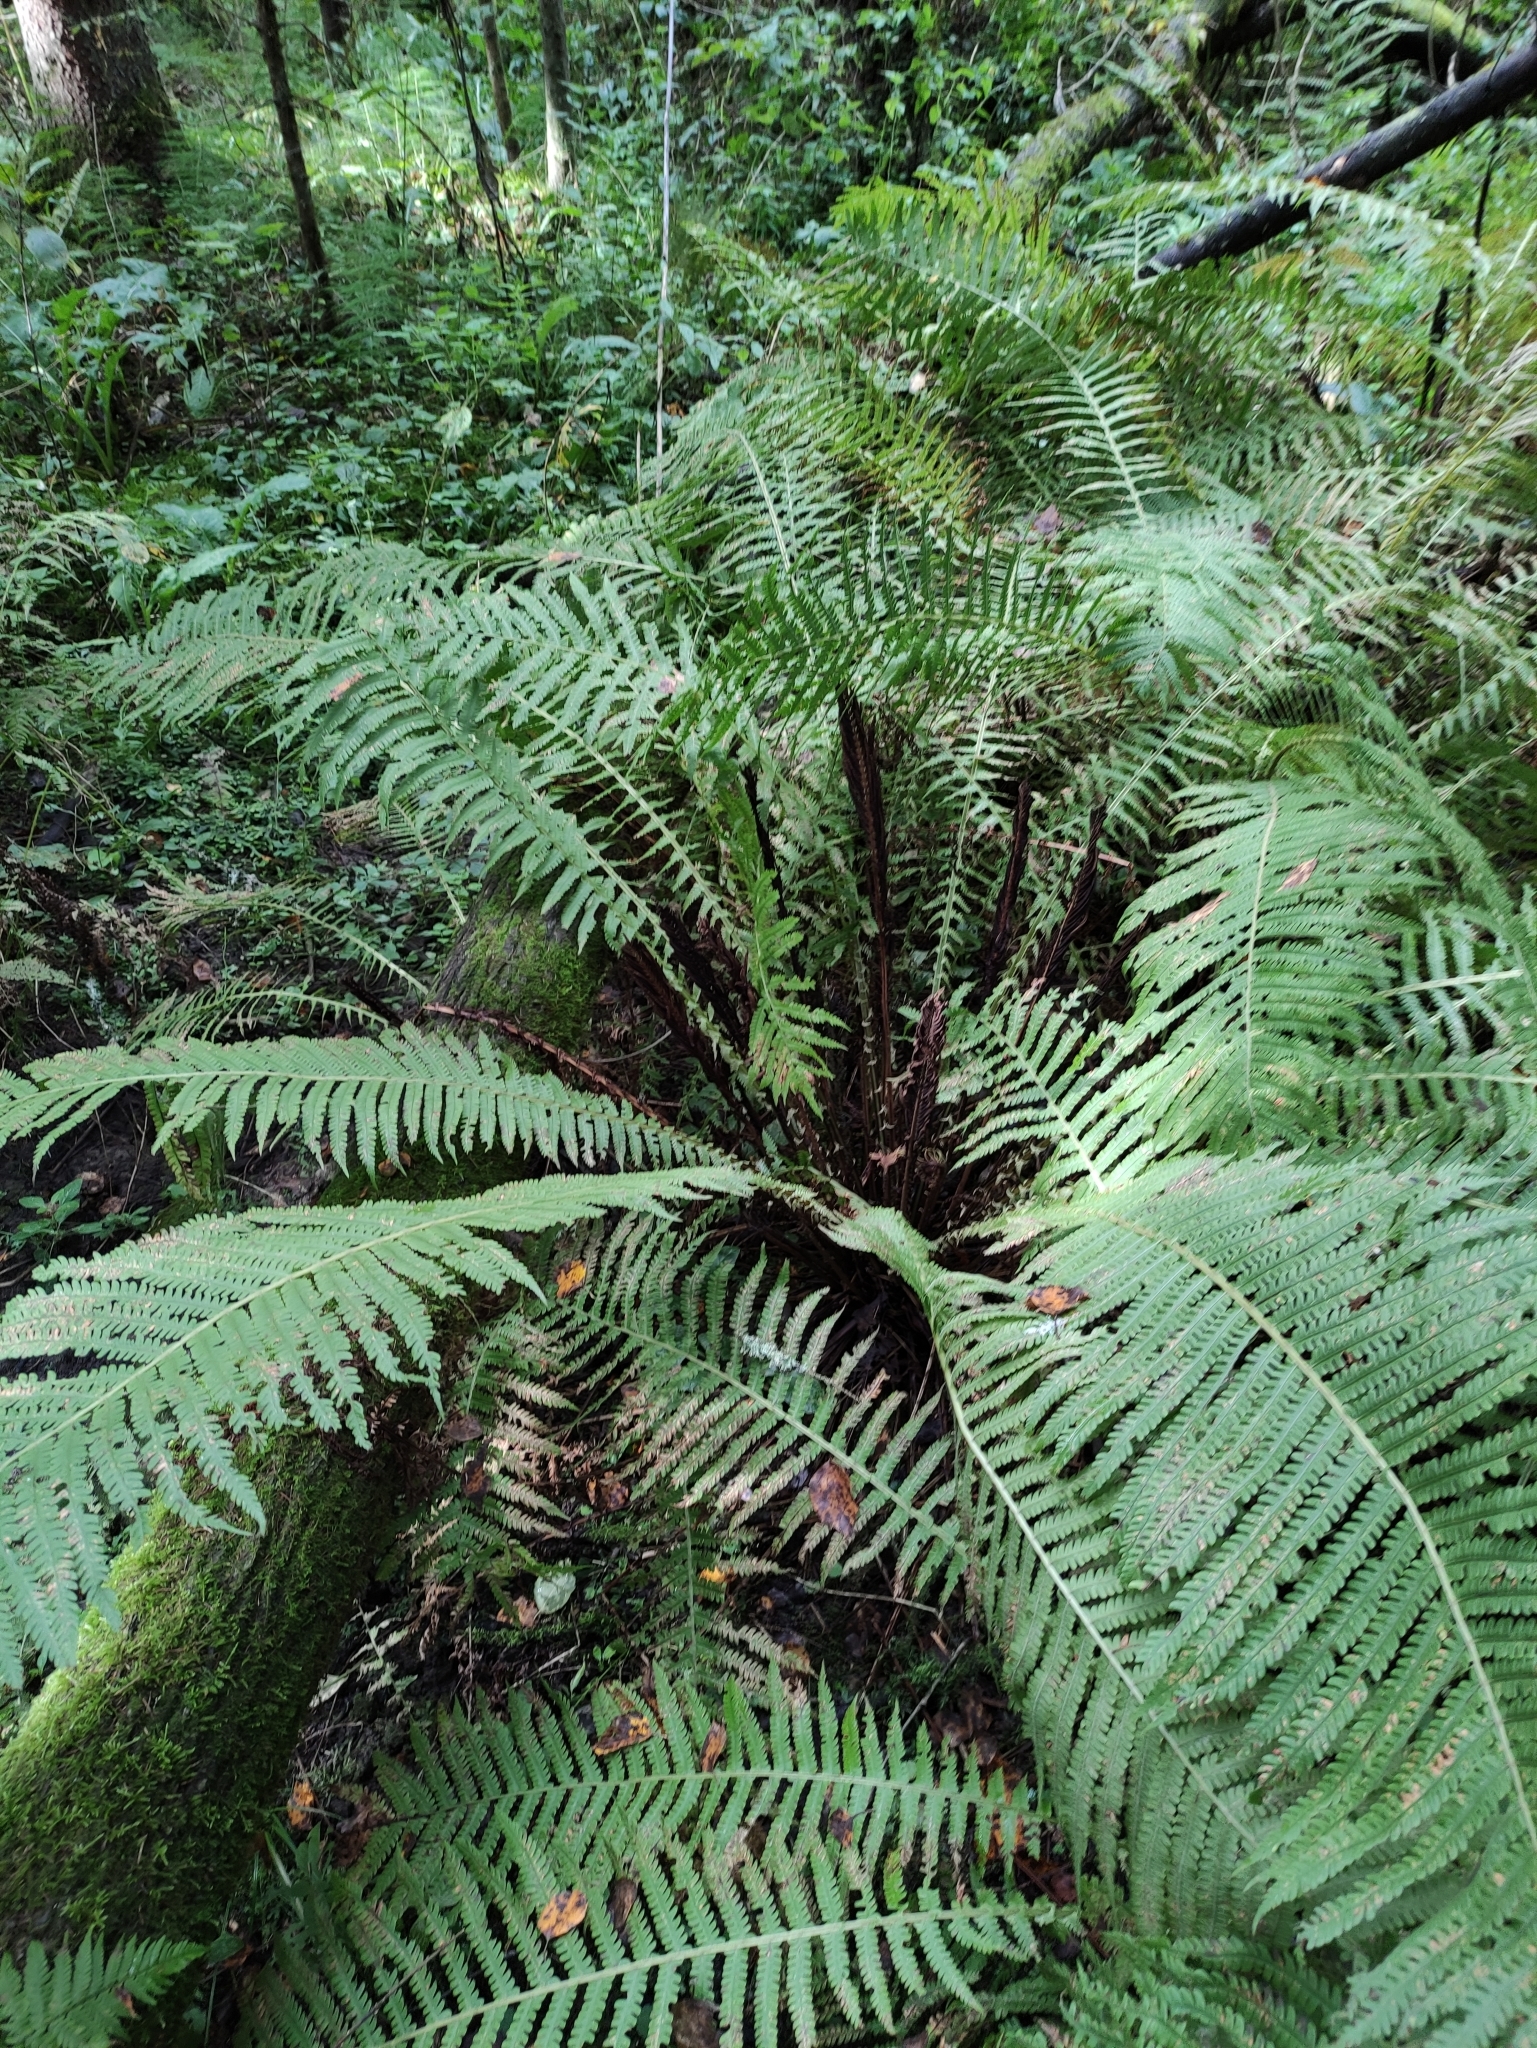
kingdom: Plantae
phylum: Tracheophyta
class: Polypodiopsida
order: Polypodiales
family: Onocleaceae
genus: Matteuccia
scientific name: Matteuccia struthiopteris
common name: Ostrich fern
